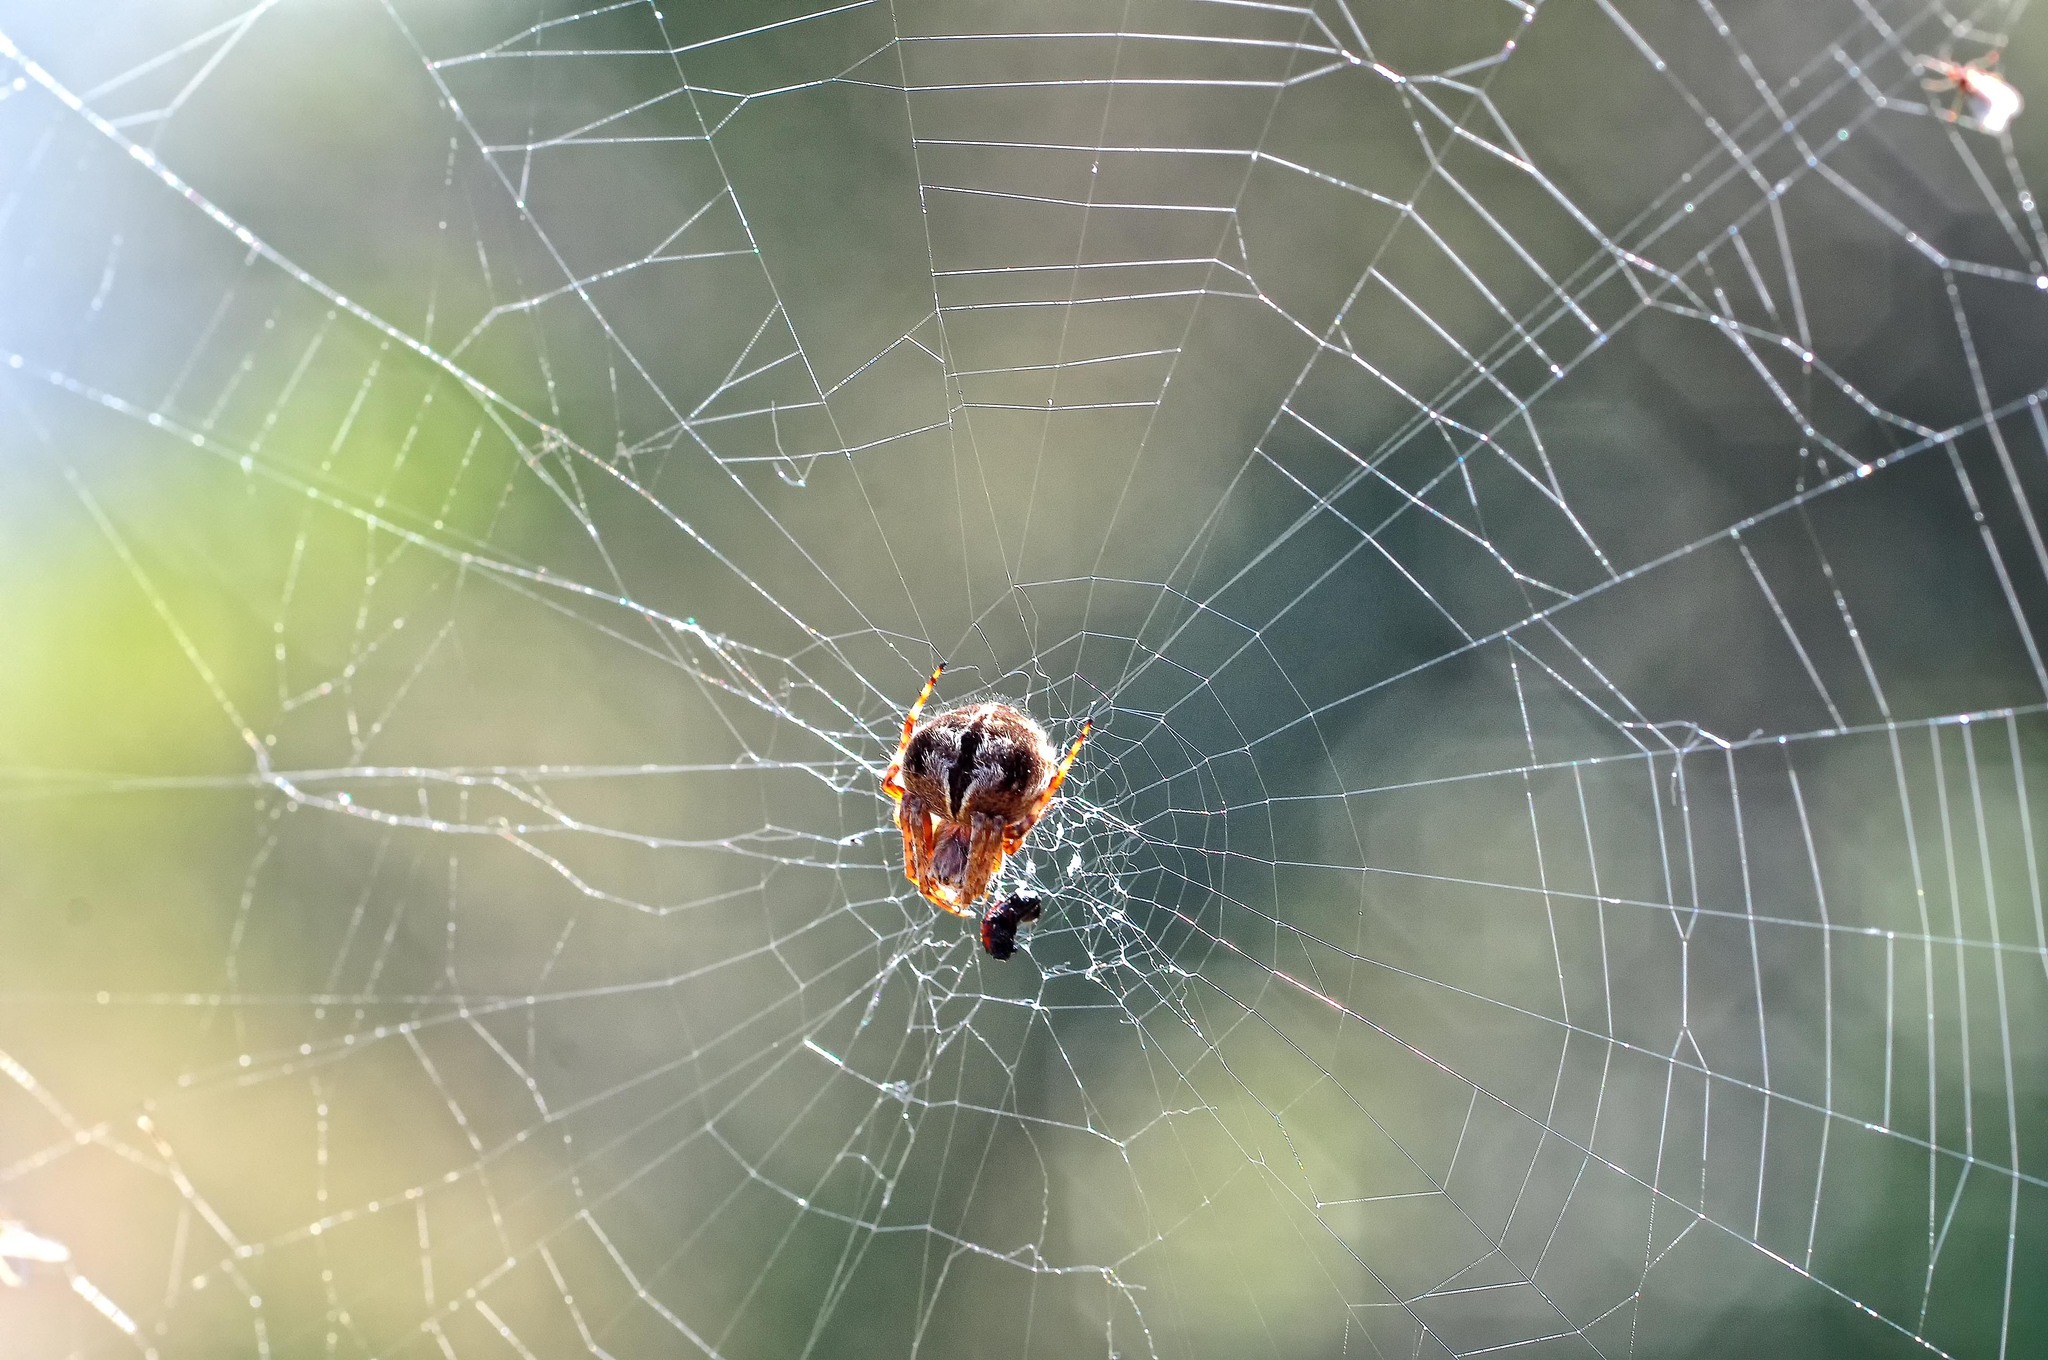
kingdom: Animalia
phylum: Arthropoda
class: Arachnida
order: Araneae
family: Araneidae
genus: Agalenatea
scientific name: Agalenatea redii
